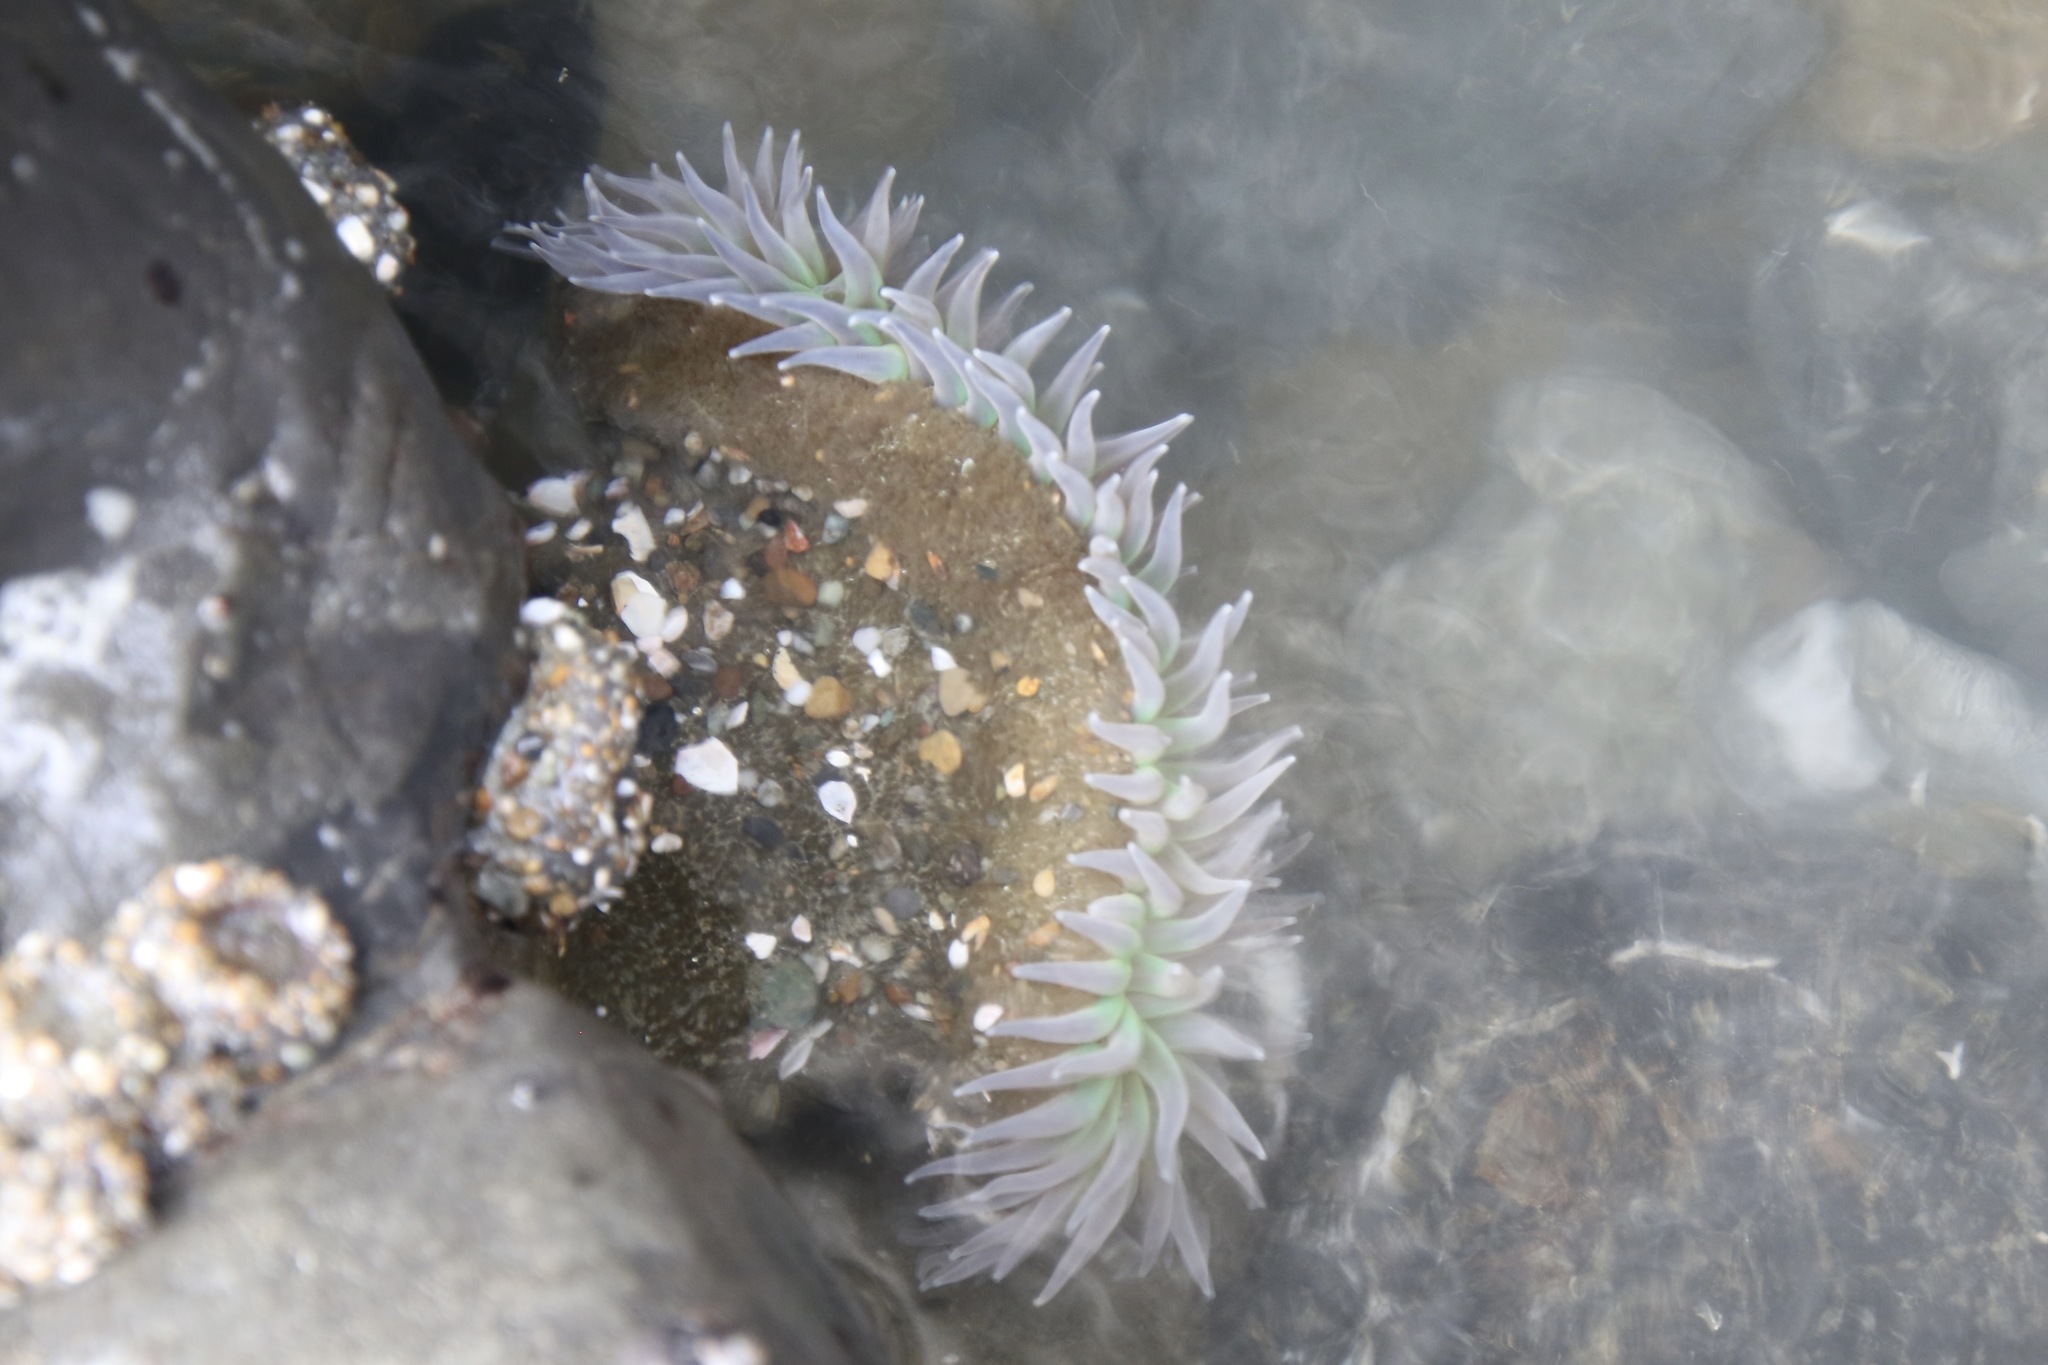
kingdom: Animalia
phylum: Cnidaria
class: Anthozoa
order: Actiniaria
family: Actiniidae
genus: Anthopleura
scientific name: Anthopleura xanthogrammica
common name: Giant green anemone
